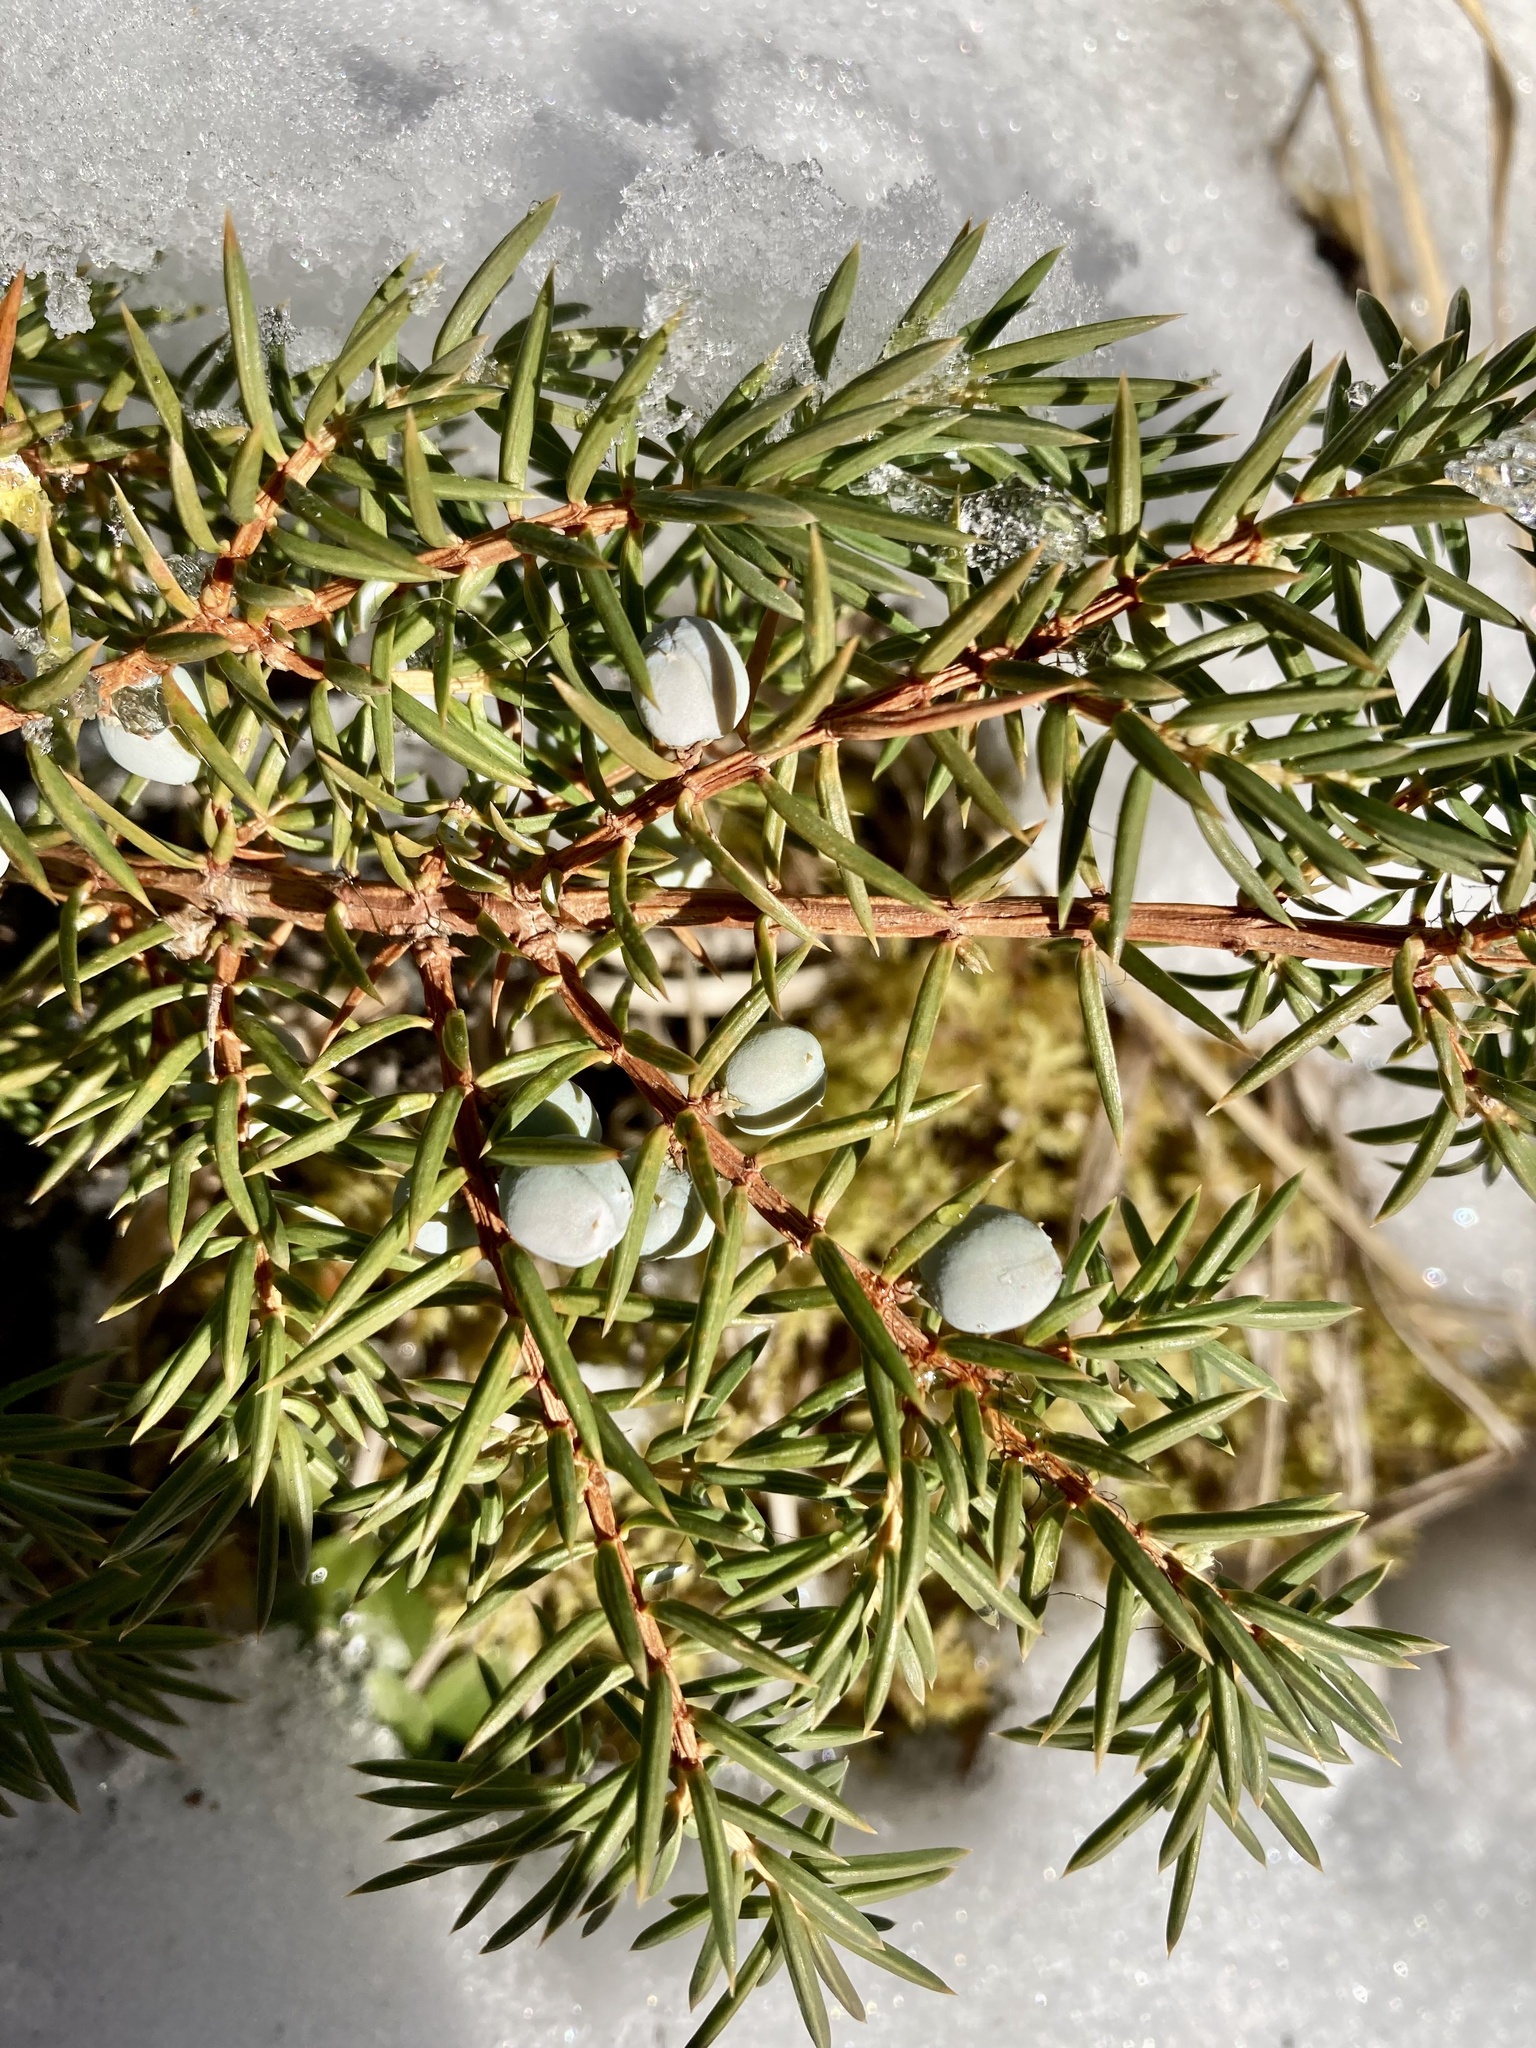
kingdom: Plantae
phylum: Tracheophyta
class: Pinopsida
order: Pinales
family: Cupressaceae
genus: Juniperus
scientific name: Juniperus communis
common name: Common juniper
